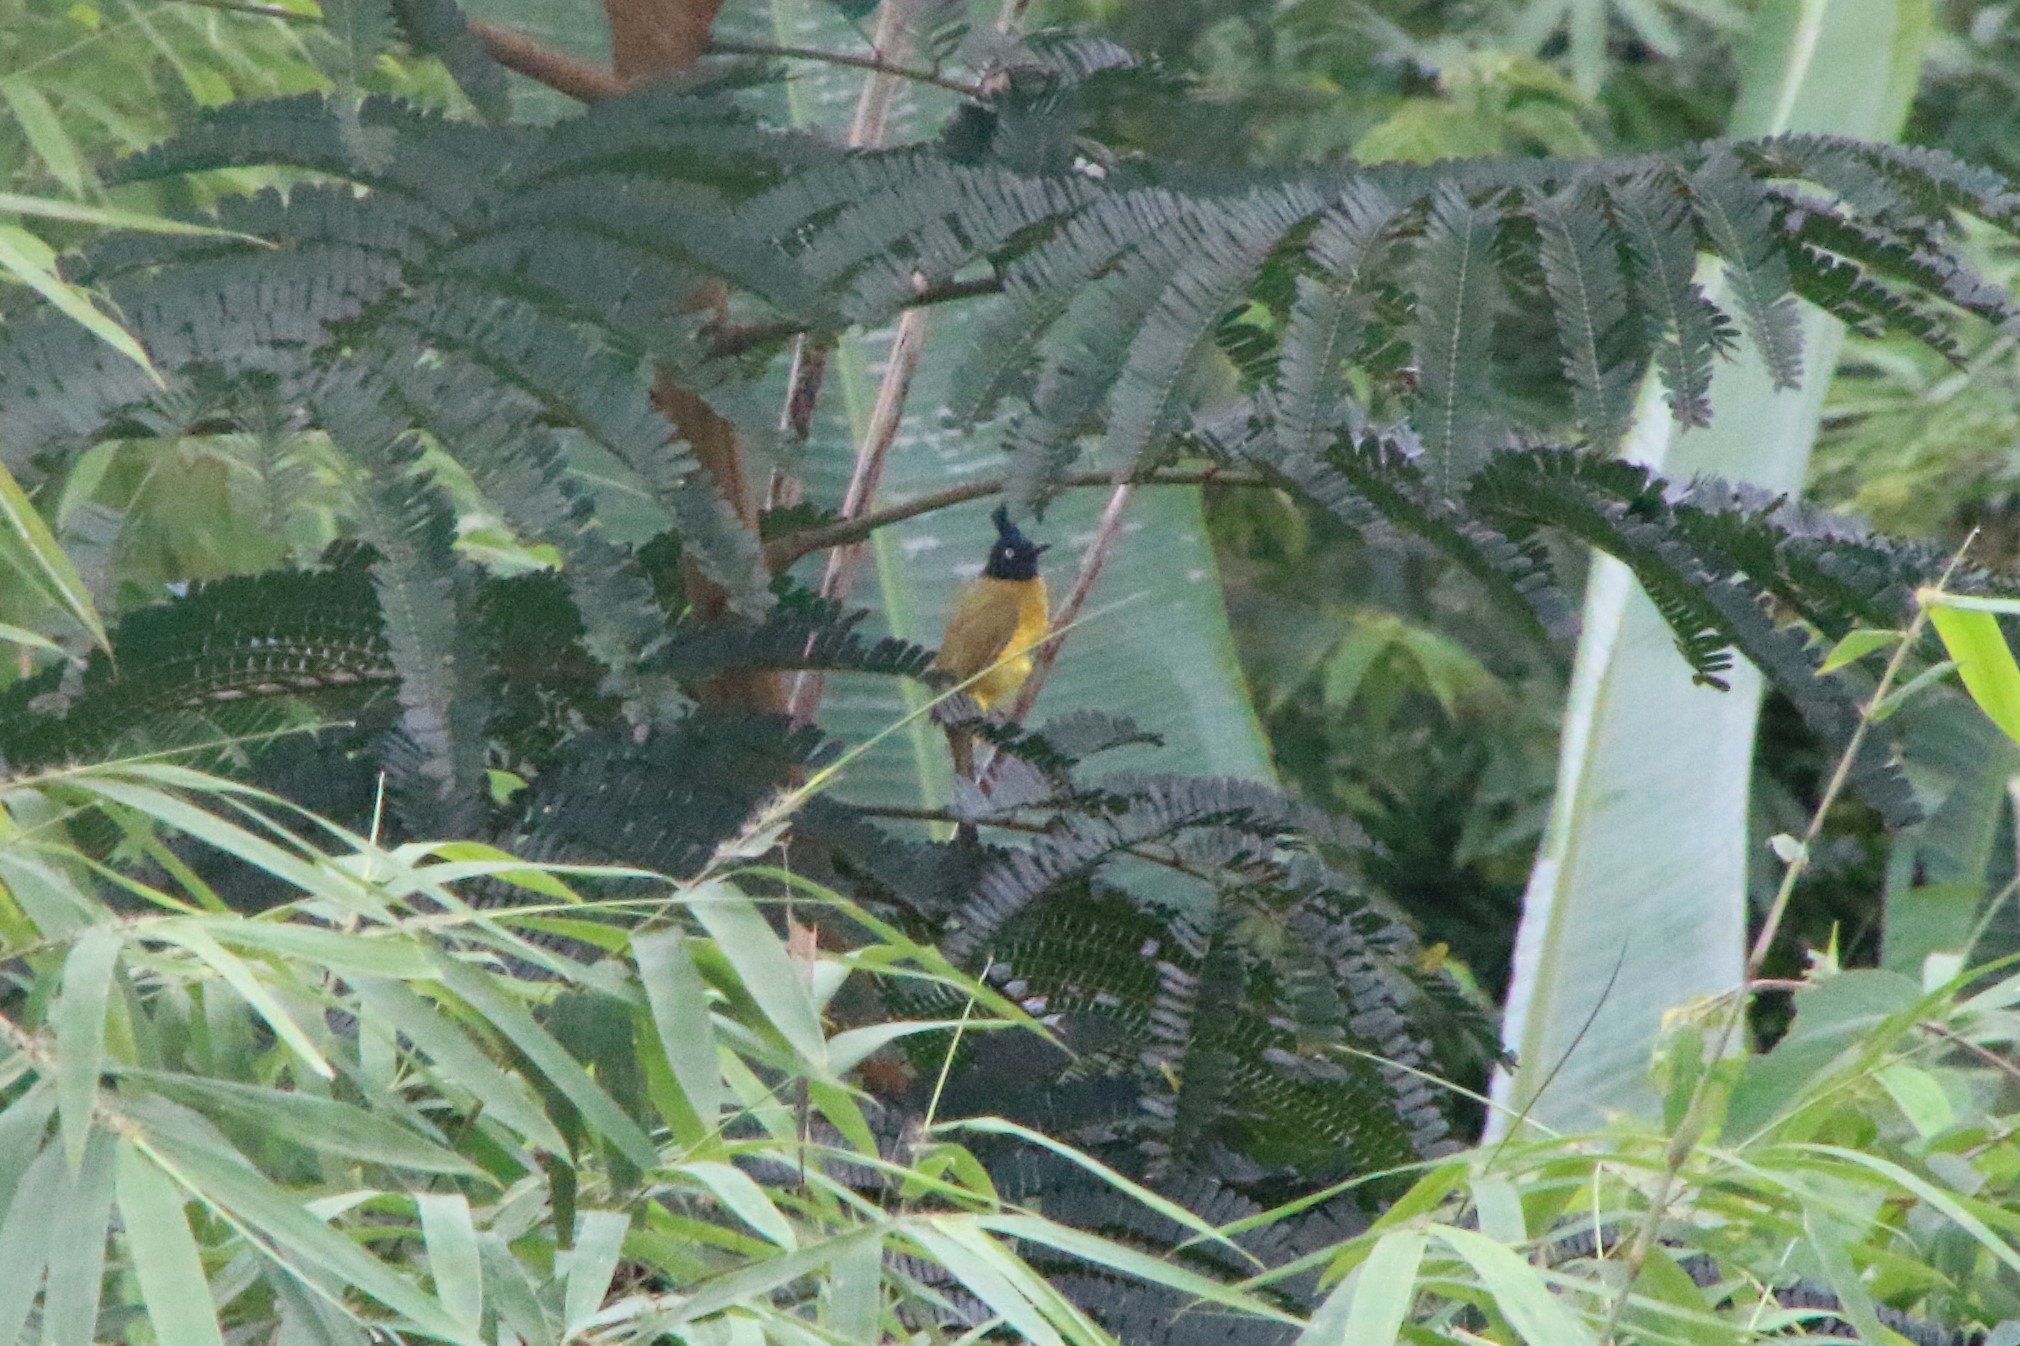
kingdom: Animalia
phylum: Chordata
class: Aves
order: Passeriformes
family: Pycnonotidae
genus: Pycnonotus
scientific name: Pycnonotus flaviventris
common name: Black-crested bulbul
